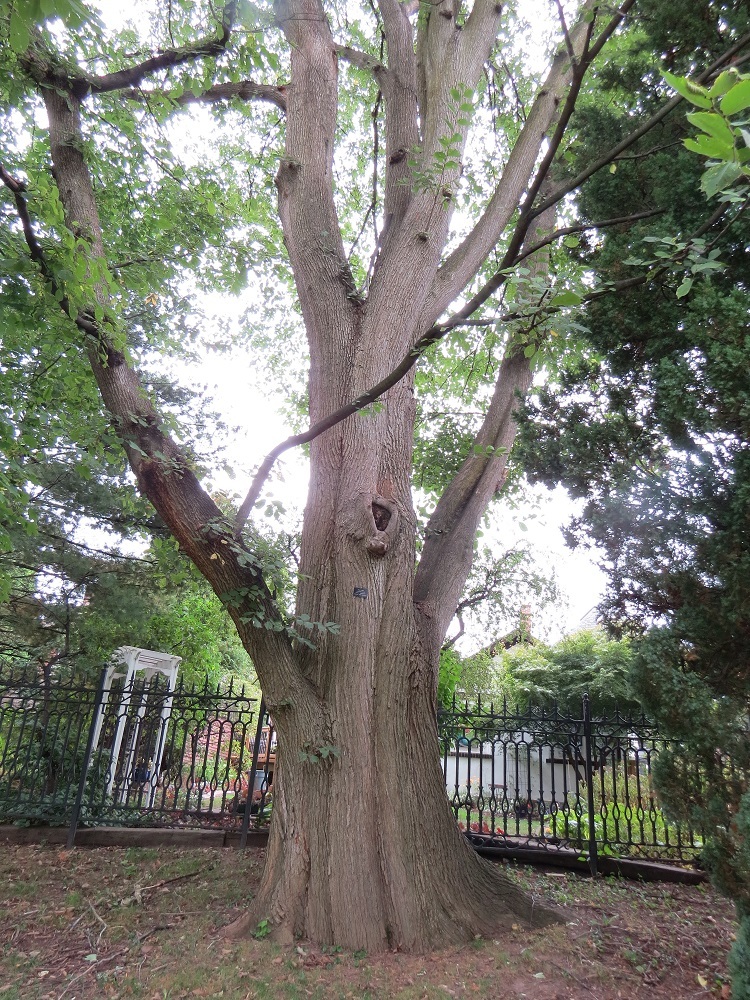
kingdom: Plantae
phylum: Tracheophyta
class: Magnoliopsida
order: Rosales
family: Ulmaceae
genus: Ulmus
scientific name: Ulmus rubra
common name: Slippery elm
